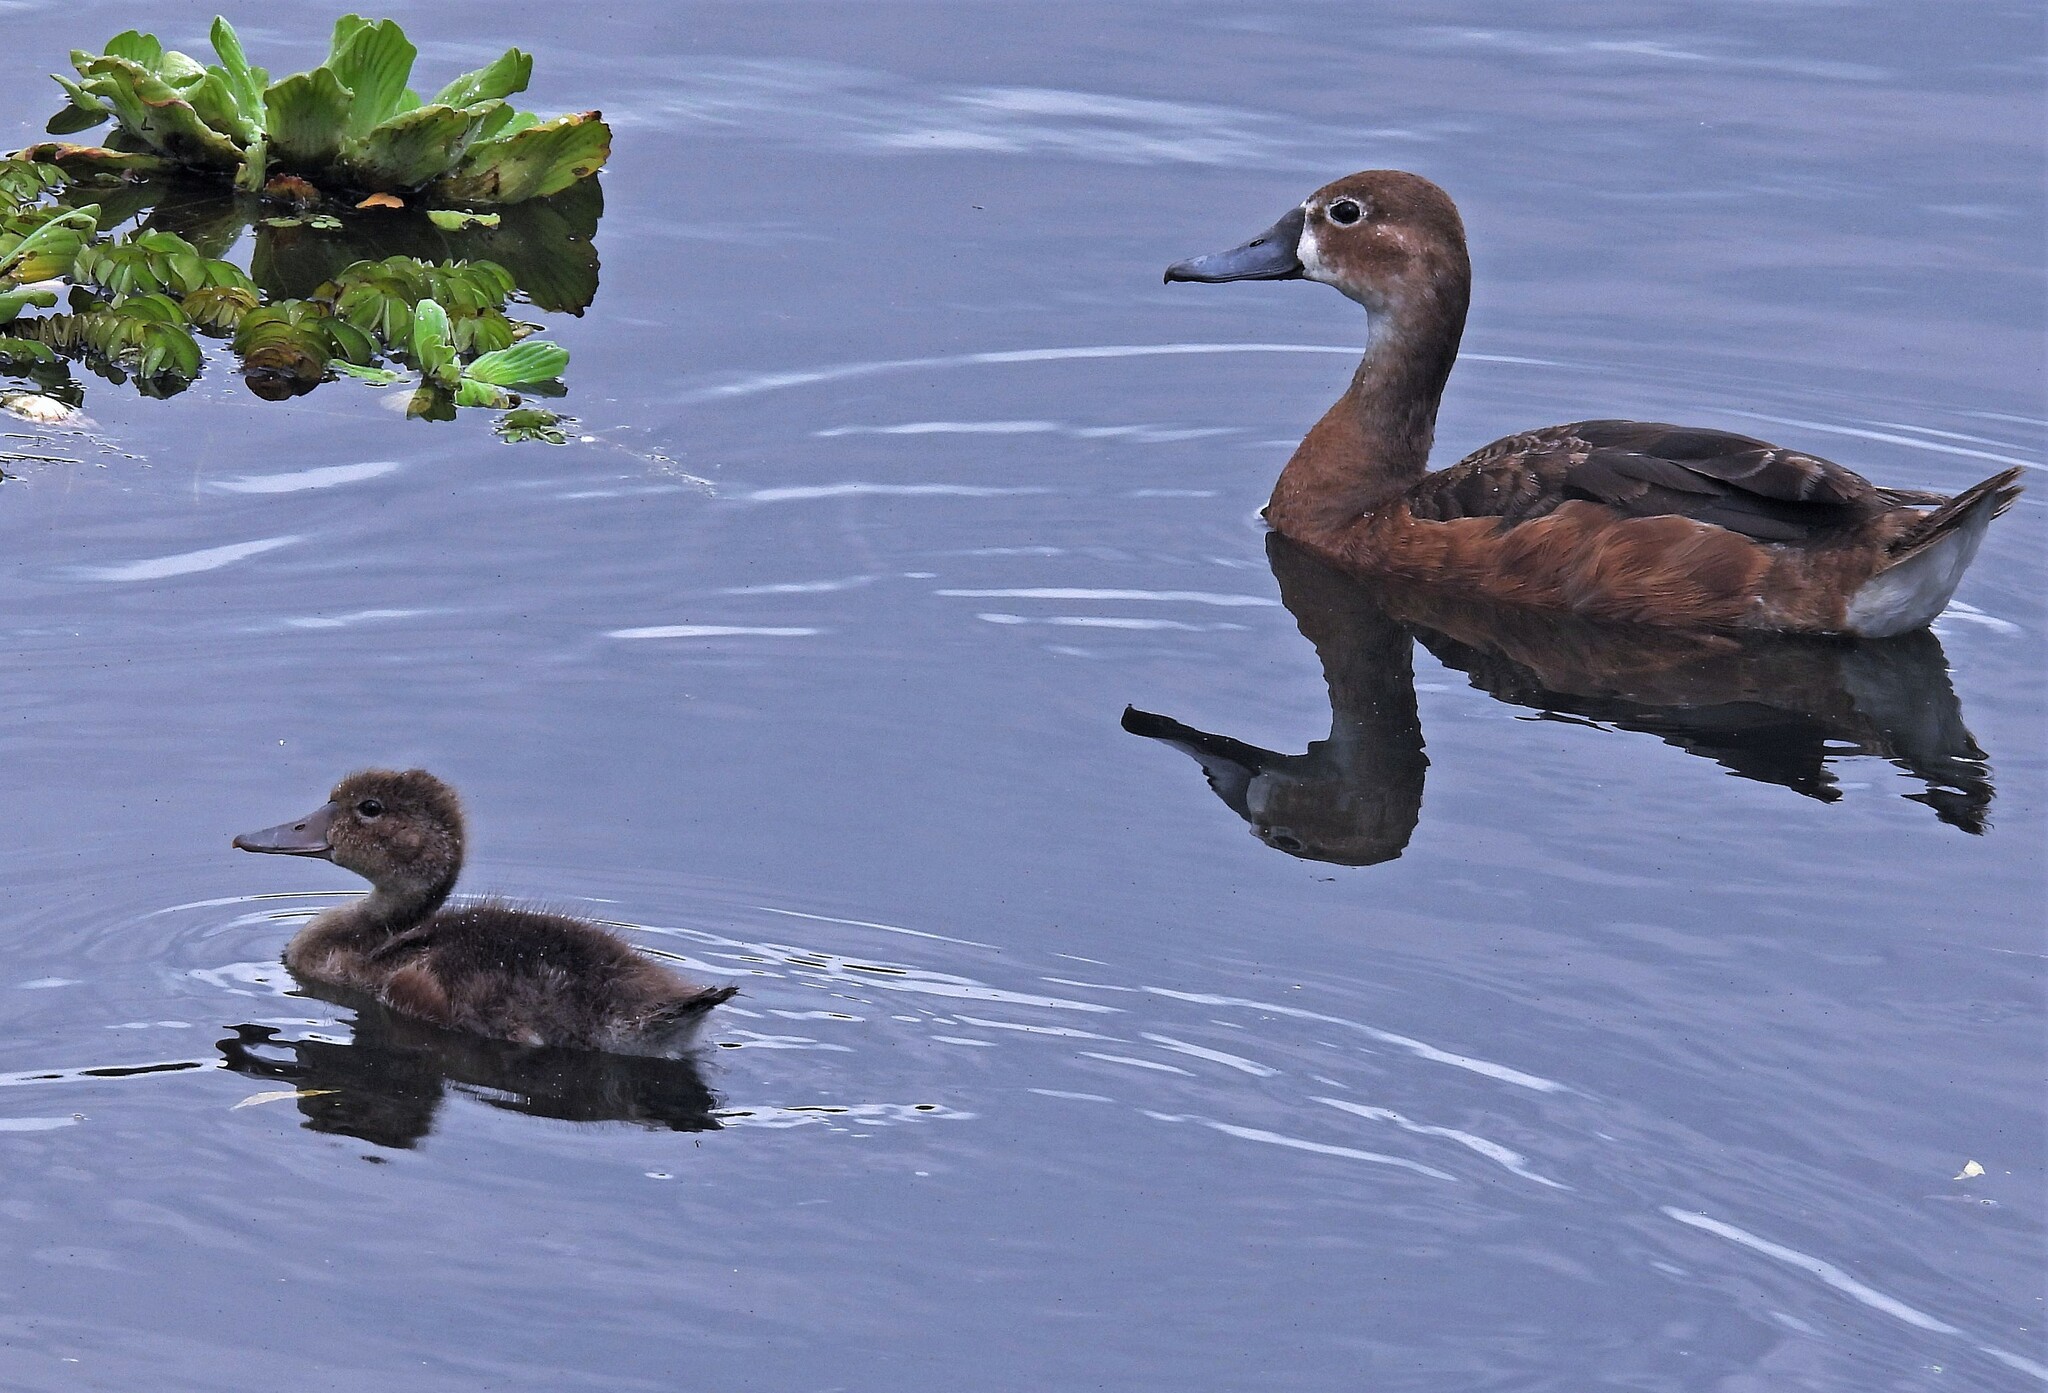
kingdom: Animalia
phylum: Chordata
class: Aves
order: Anseriformes
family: Anatidae
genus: Netta
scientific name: Netta peposaca
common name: Rosy-billed pochard
